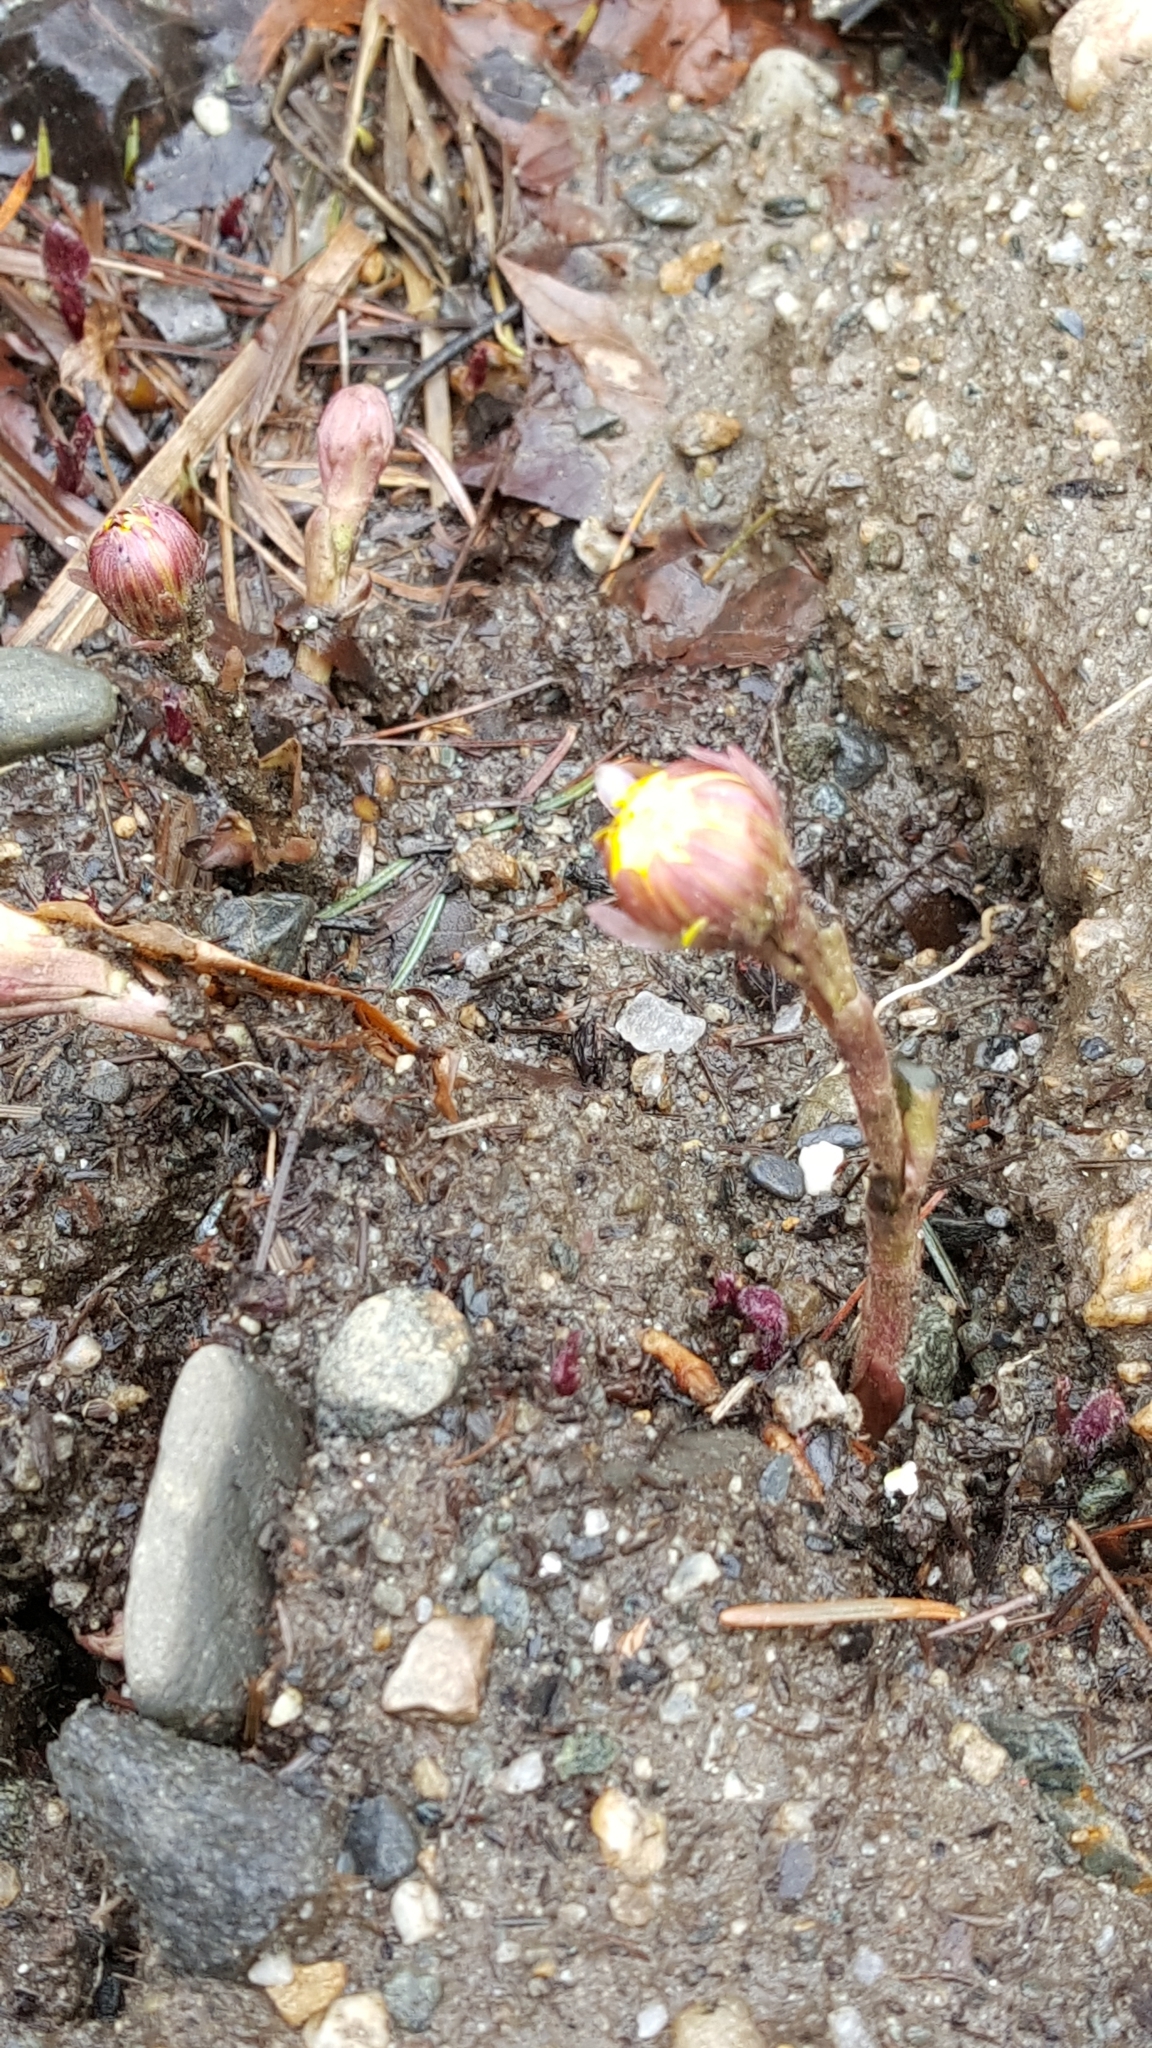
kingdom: Plantae
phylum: Tracheophyta
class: Magnoliopsida
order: Asterales
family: Asteraceae
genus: Tussilago
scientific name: Tussilago farfara
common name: Coltsfoot
